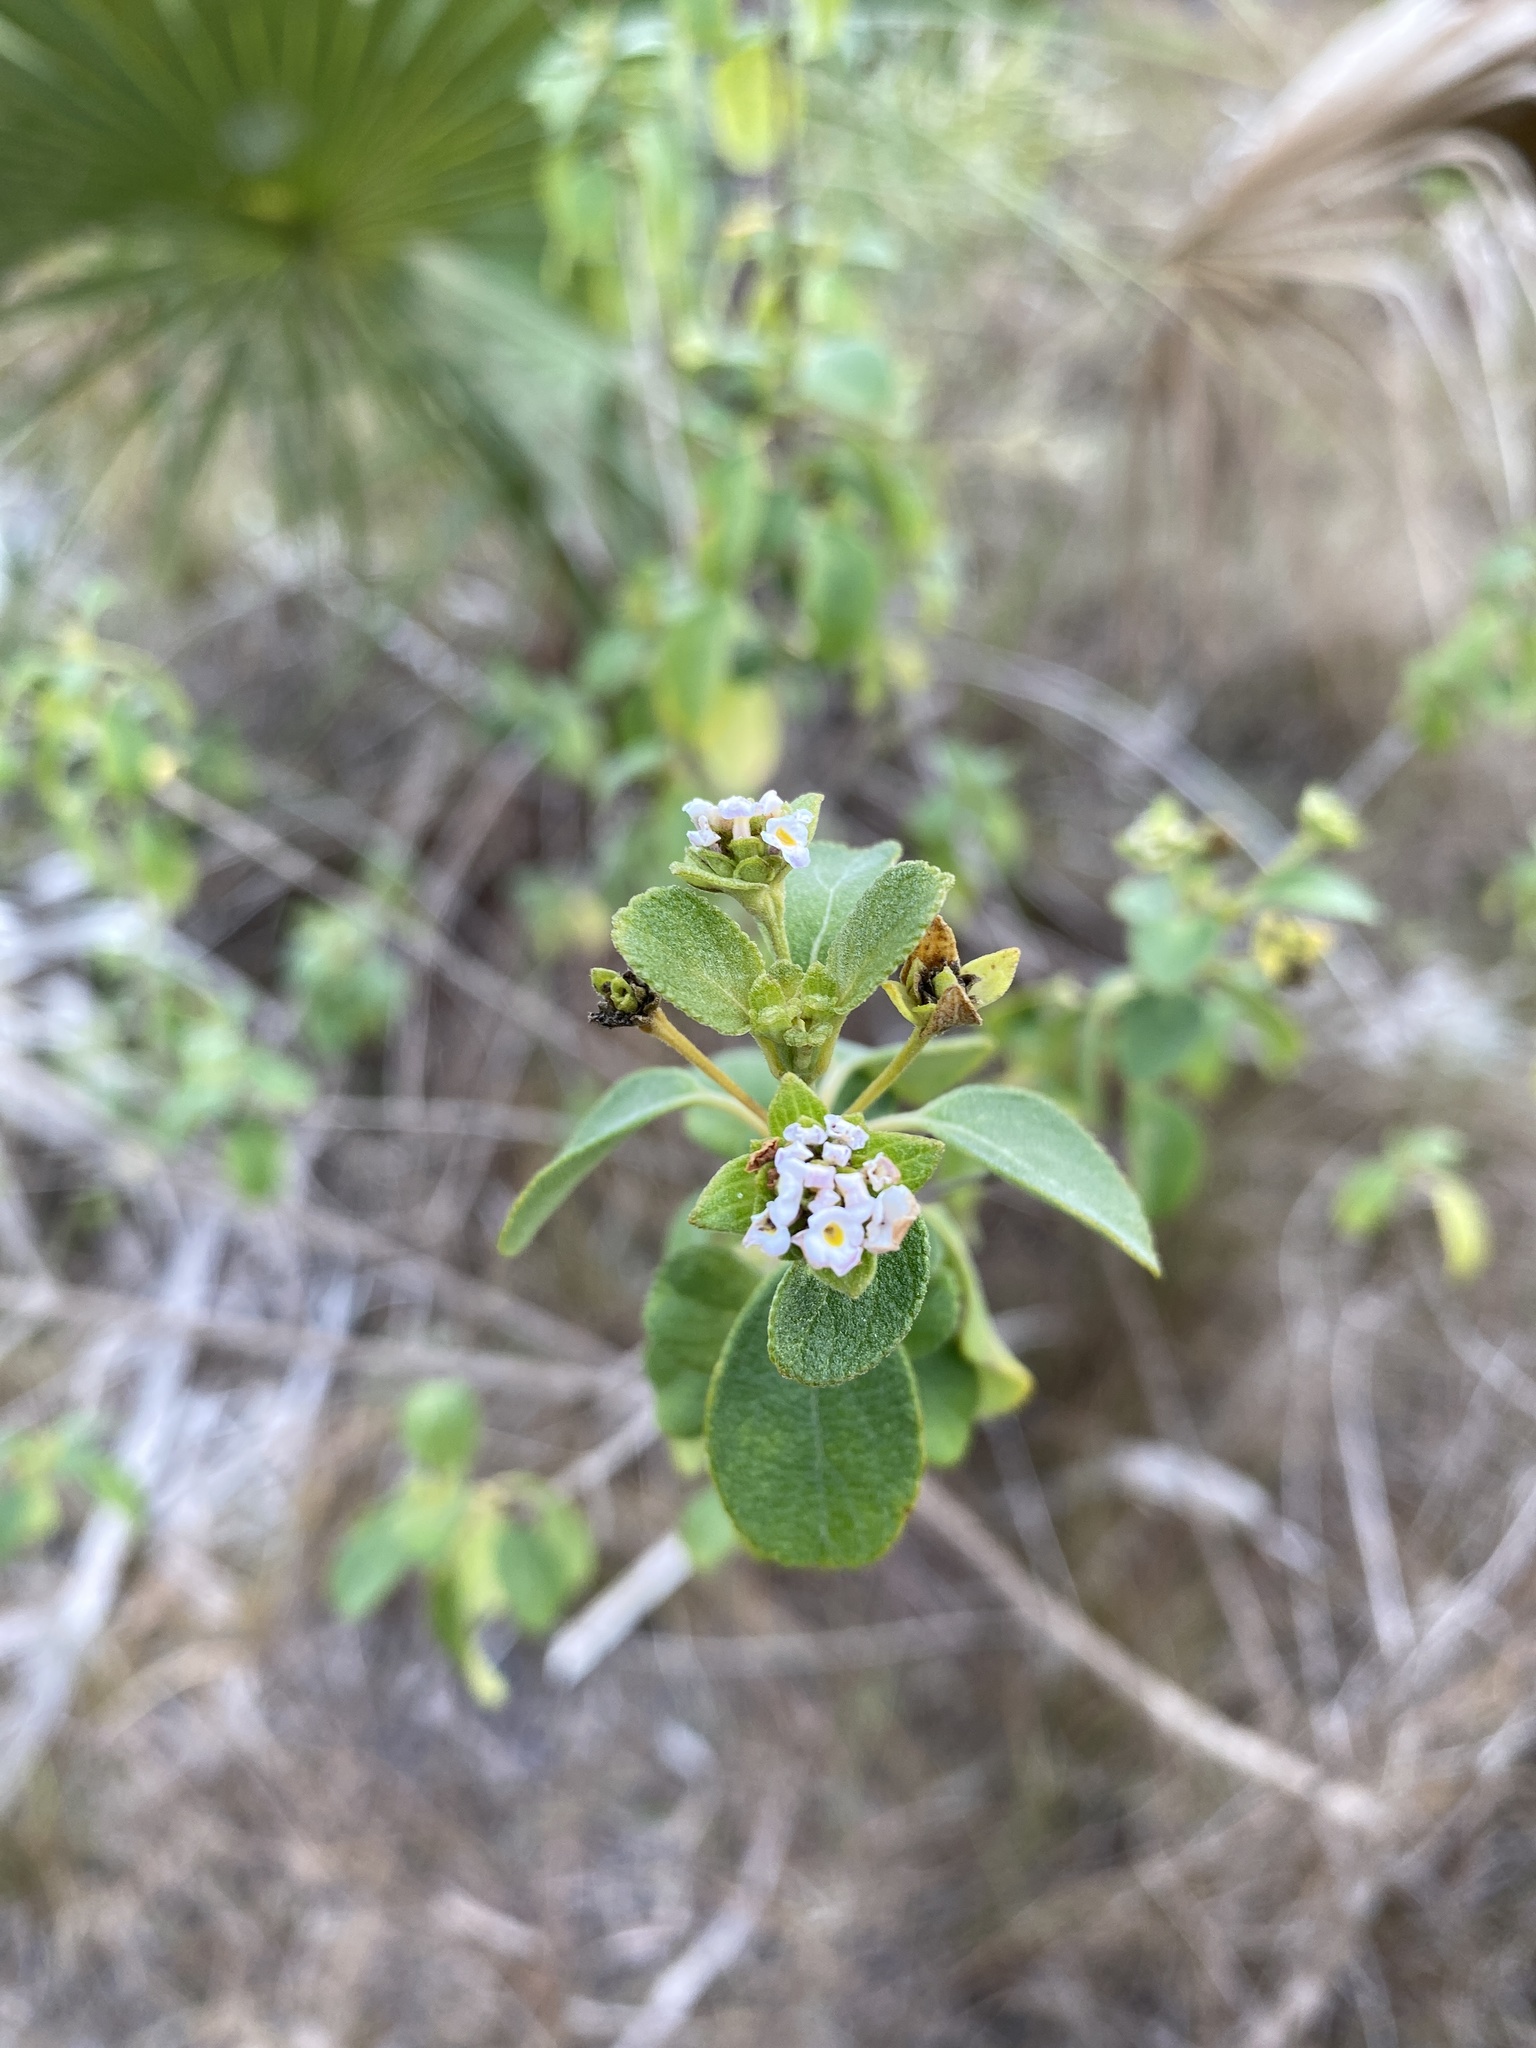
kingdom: Plantae
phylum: Tracheophyta
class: Magnoliopsida
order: Lamiales
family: Verbenaceae
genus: Lantana
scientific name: Lantana involucrata
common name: Black sage
